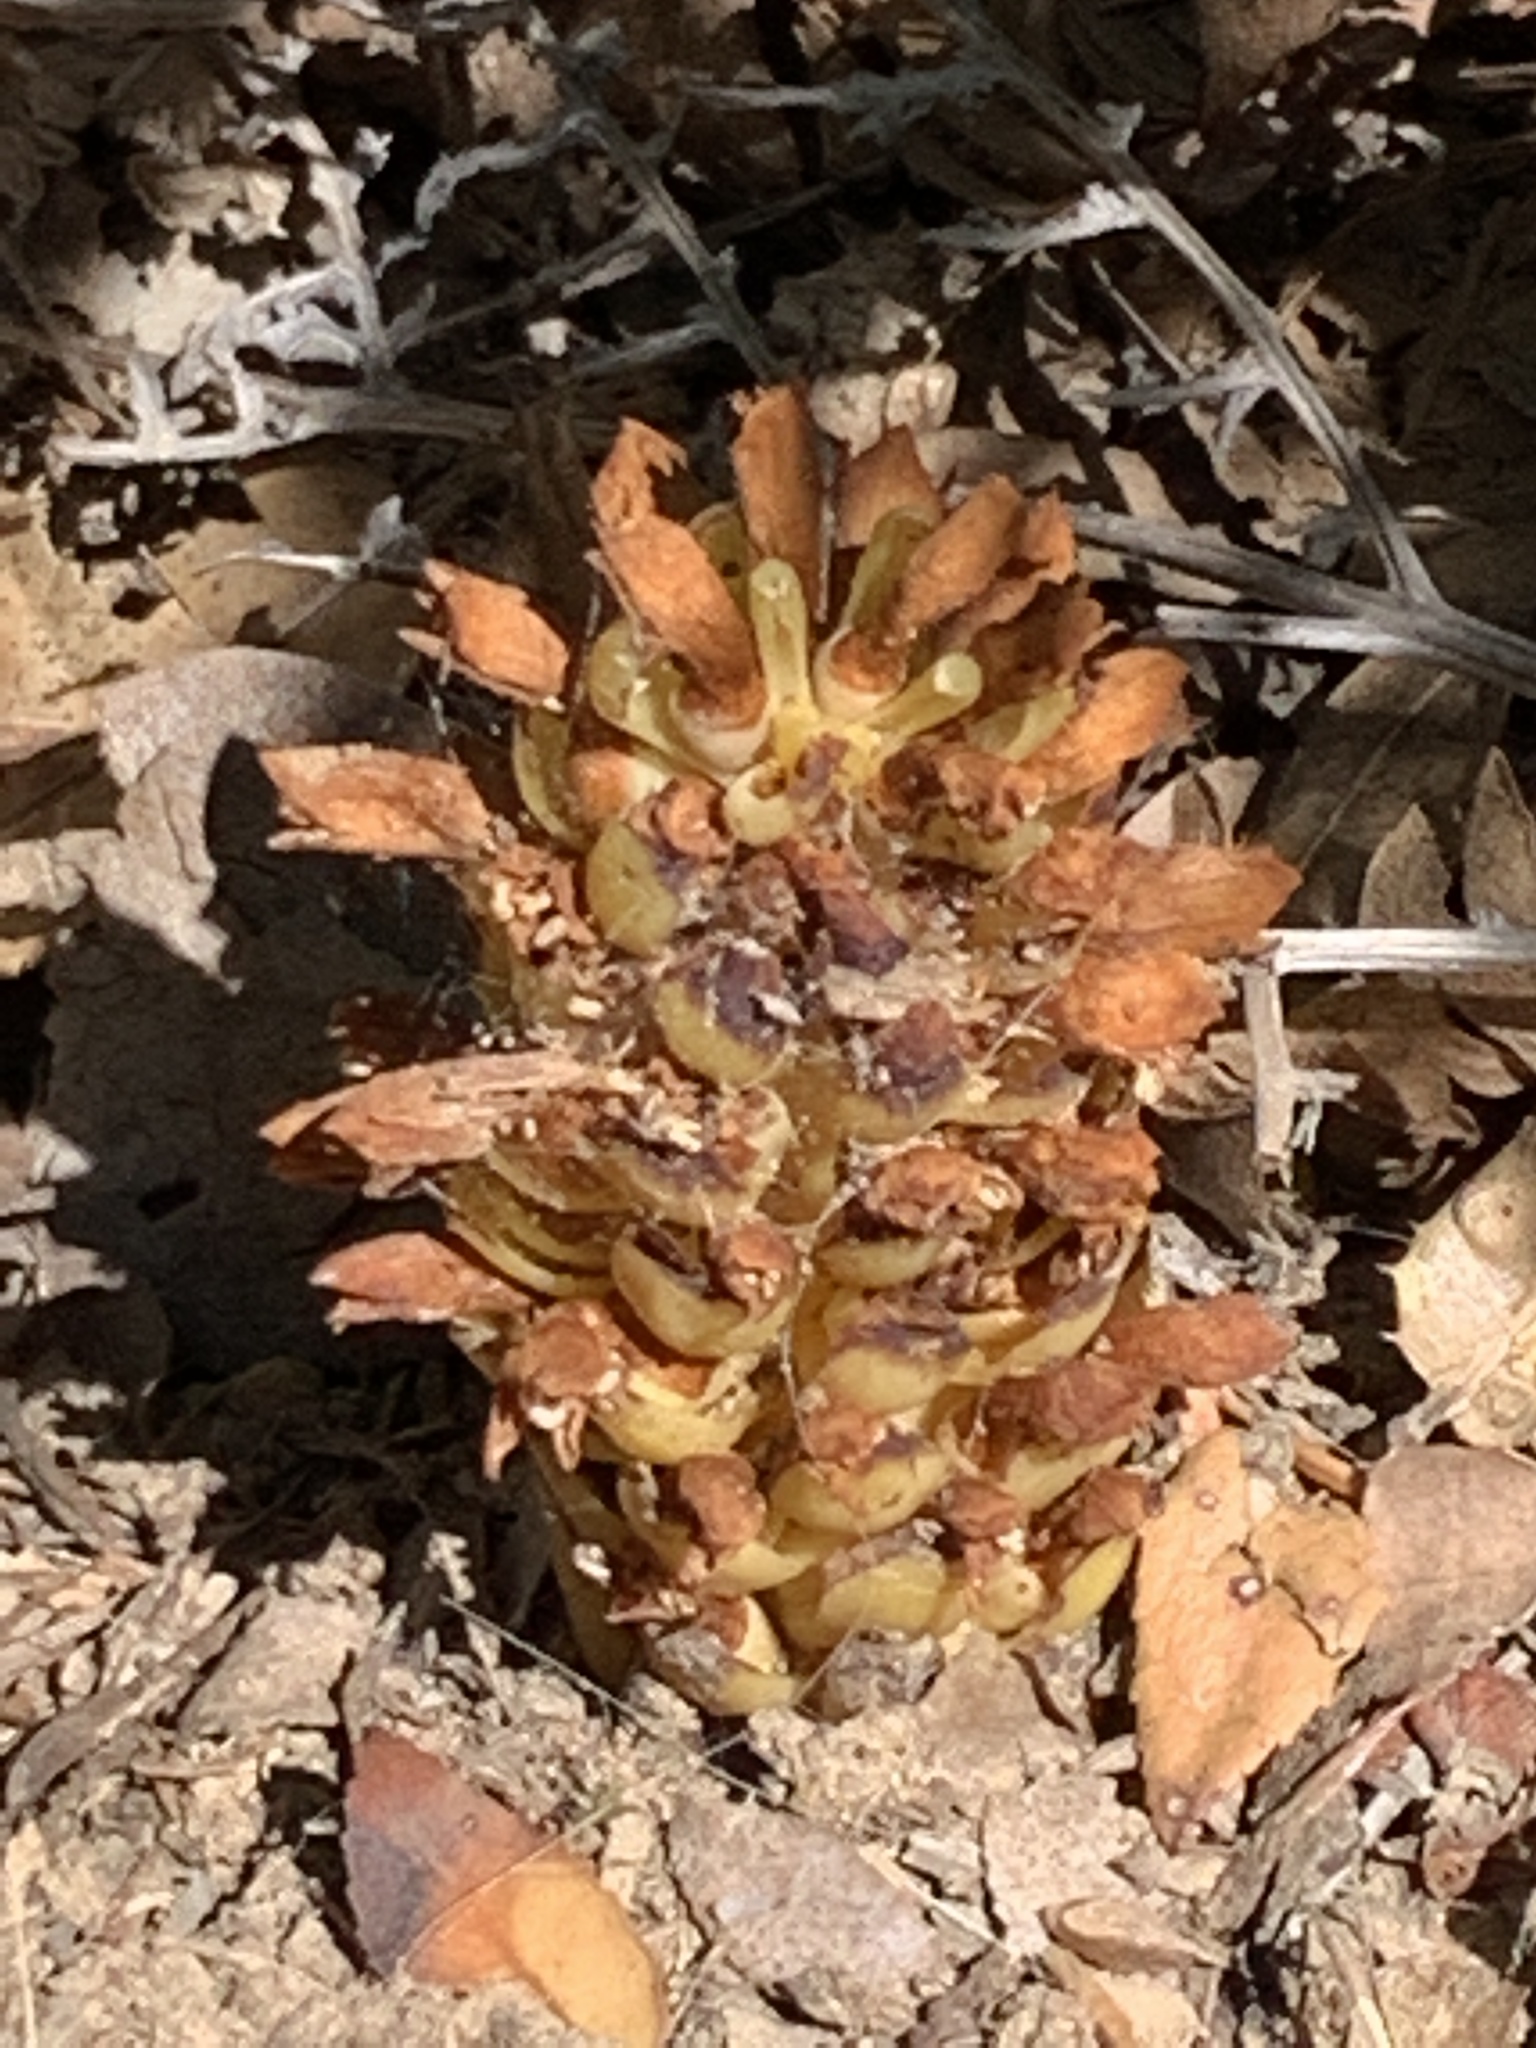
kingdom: Plantae
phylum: Tracheophyta
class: Magnoliopsida
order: Lamiales
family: Orobanchaceae
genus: Kopsiopsis
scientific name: Kopsiopsis hookeri
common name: Hooker's groundcone
